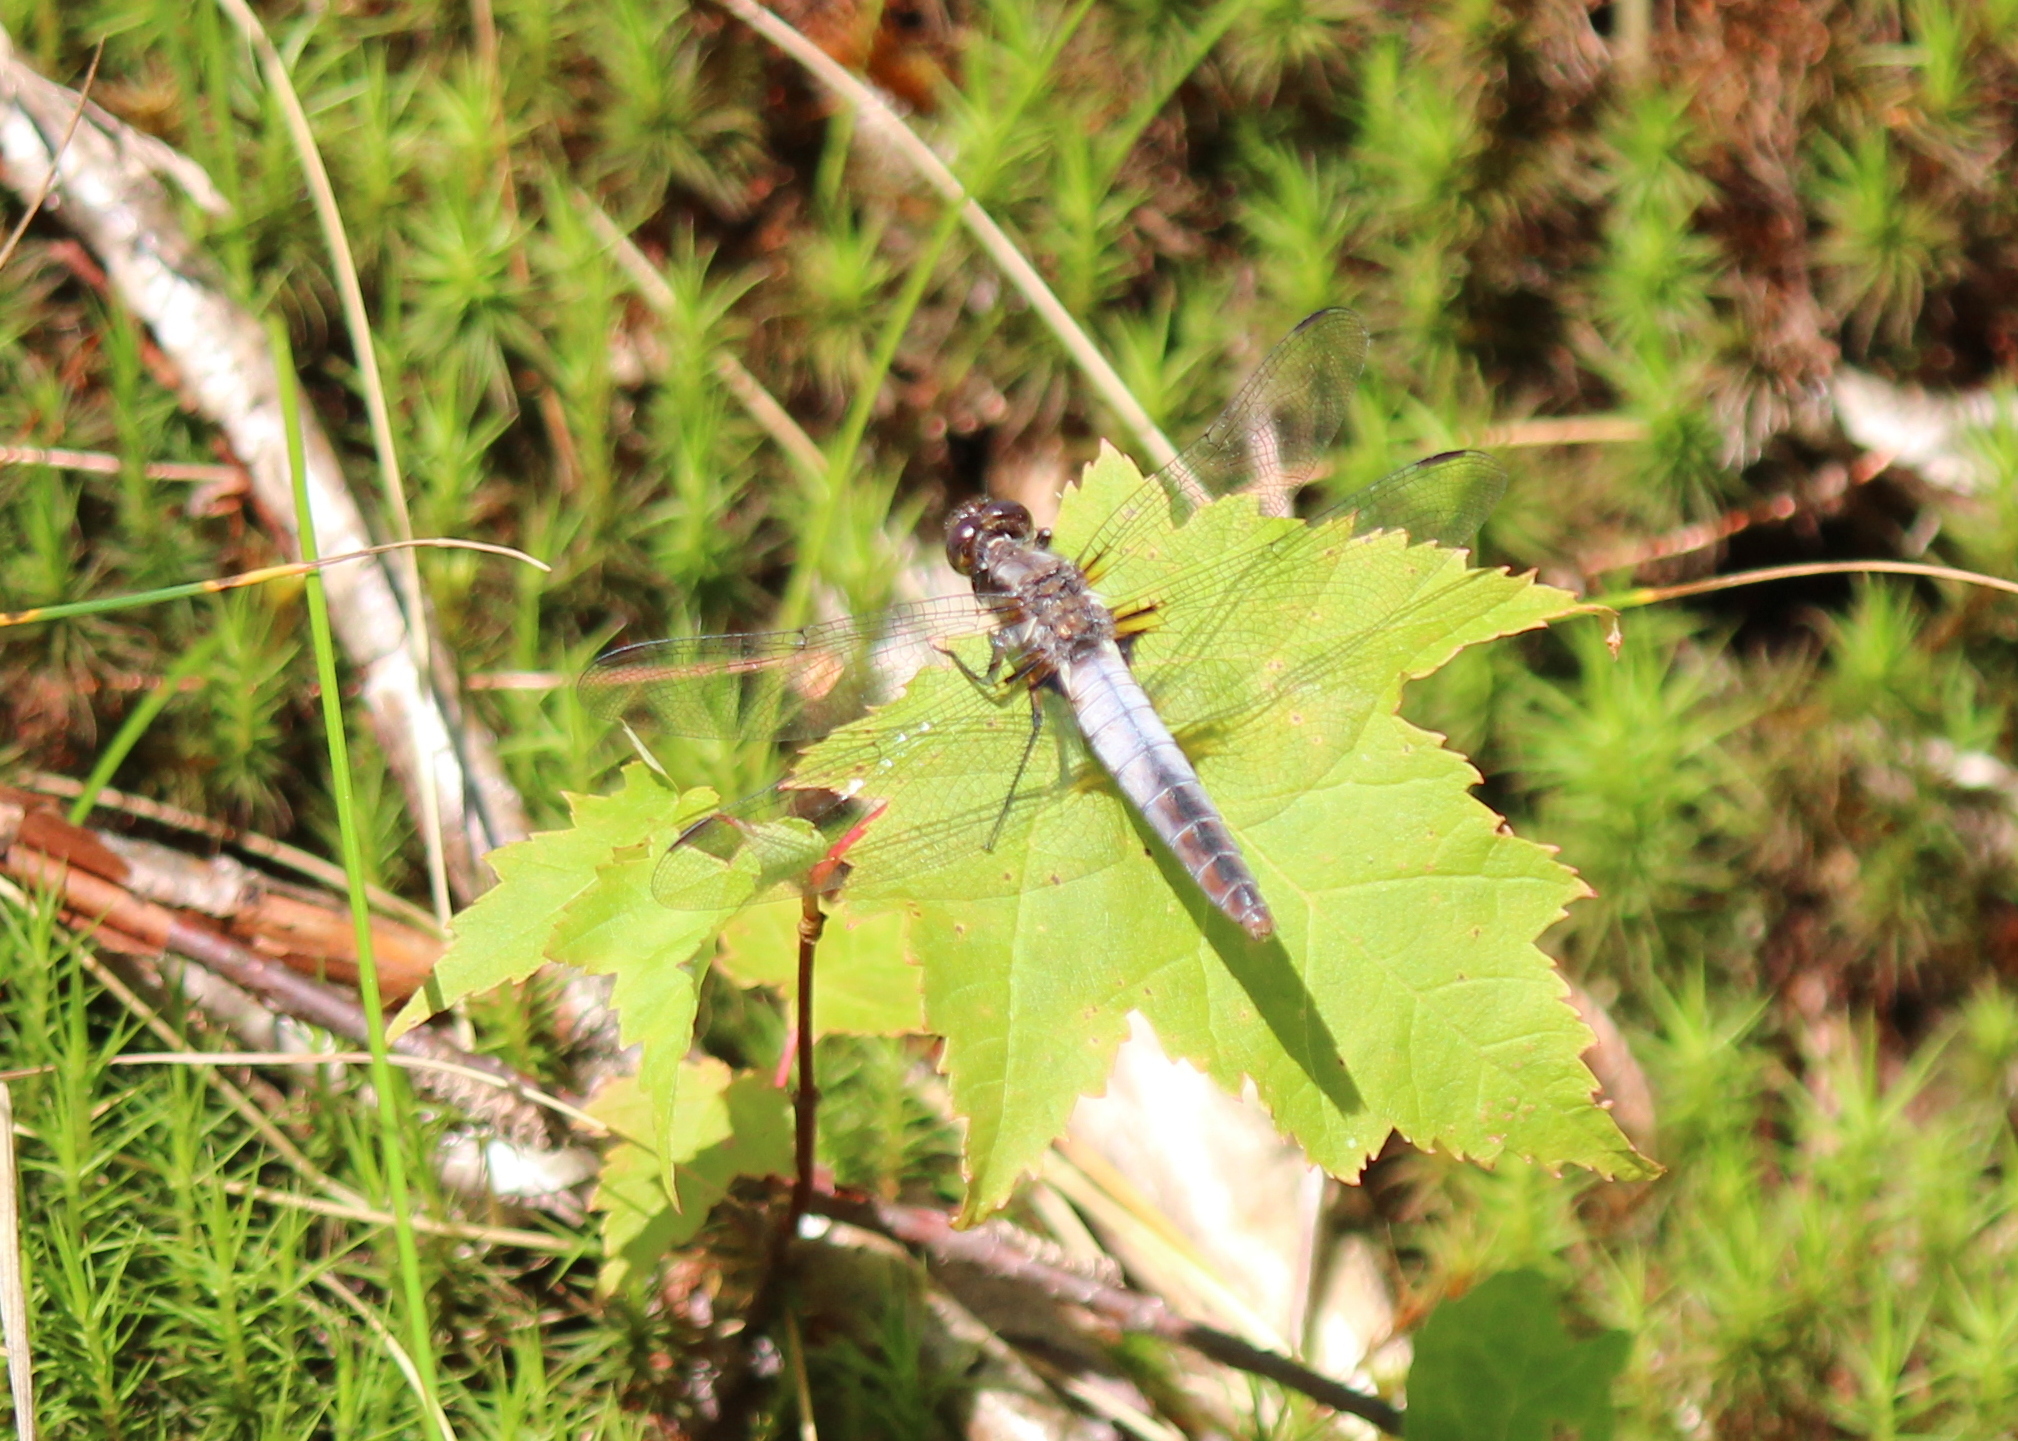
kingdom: Animalia
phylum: Arthropoda
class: Insecta
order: Odonata
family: Libellulidae
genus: Ladona
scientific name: Ladona julia
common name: Chalk-fronted corporal
